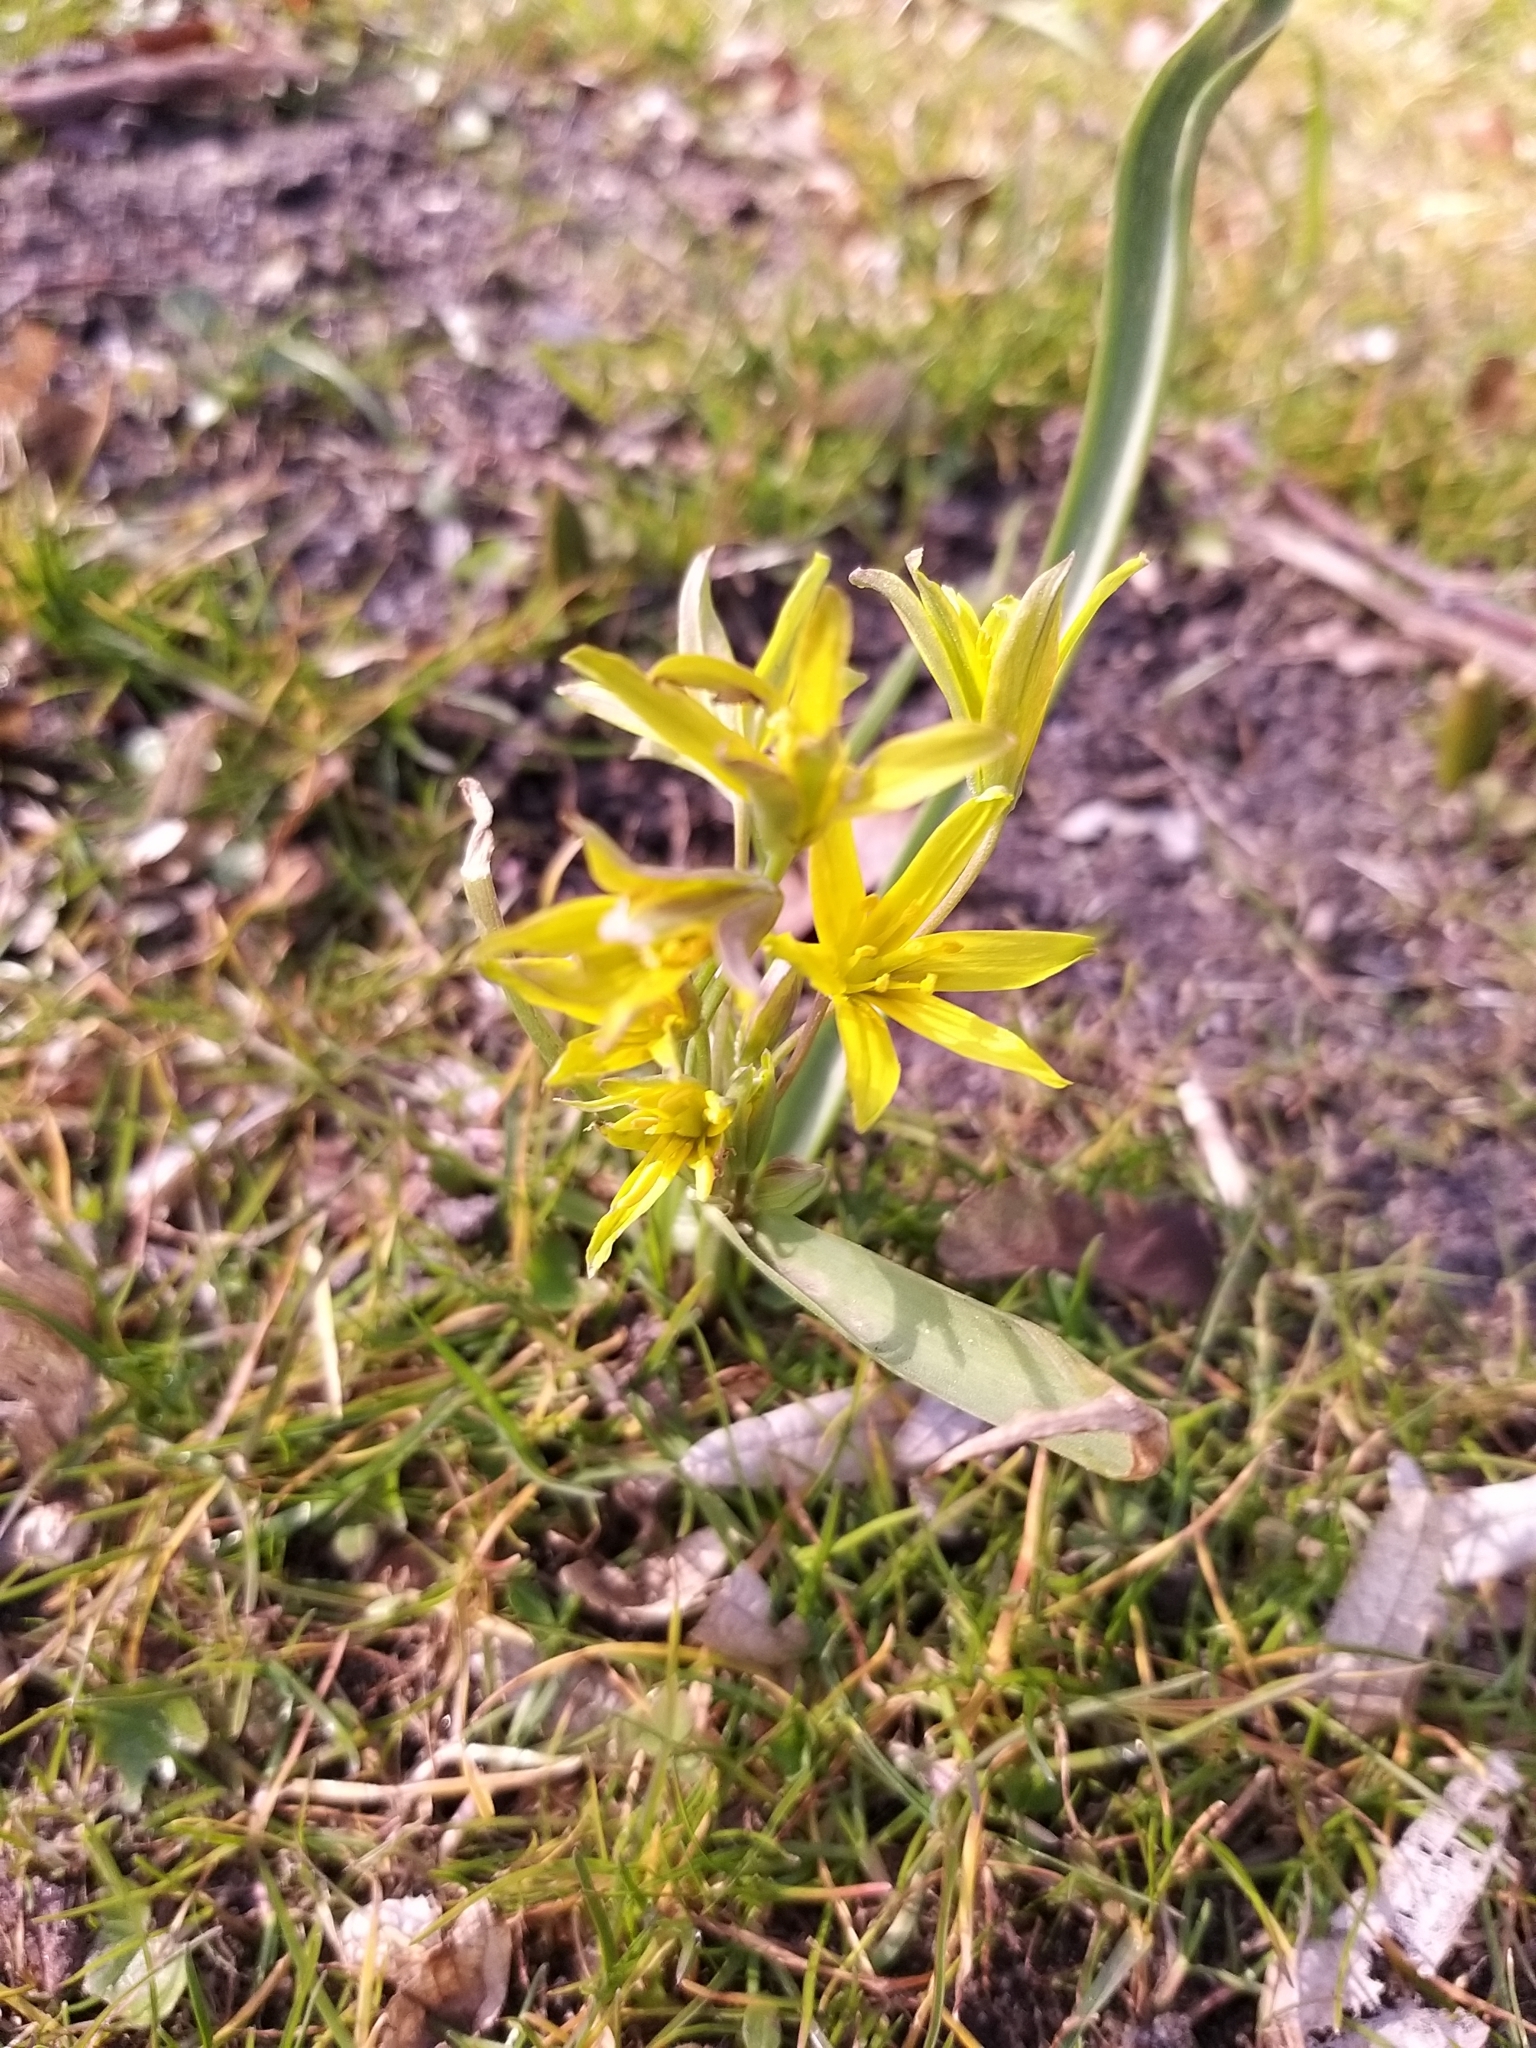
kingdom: Plantae
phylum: Tracheophyta
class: Liliopsida
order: Liliales
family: Liliaceae
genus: Gagea
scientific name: Gagea lutea
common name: Yellow star-of-bethlehem
